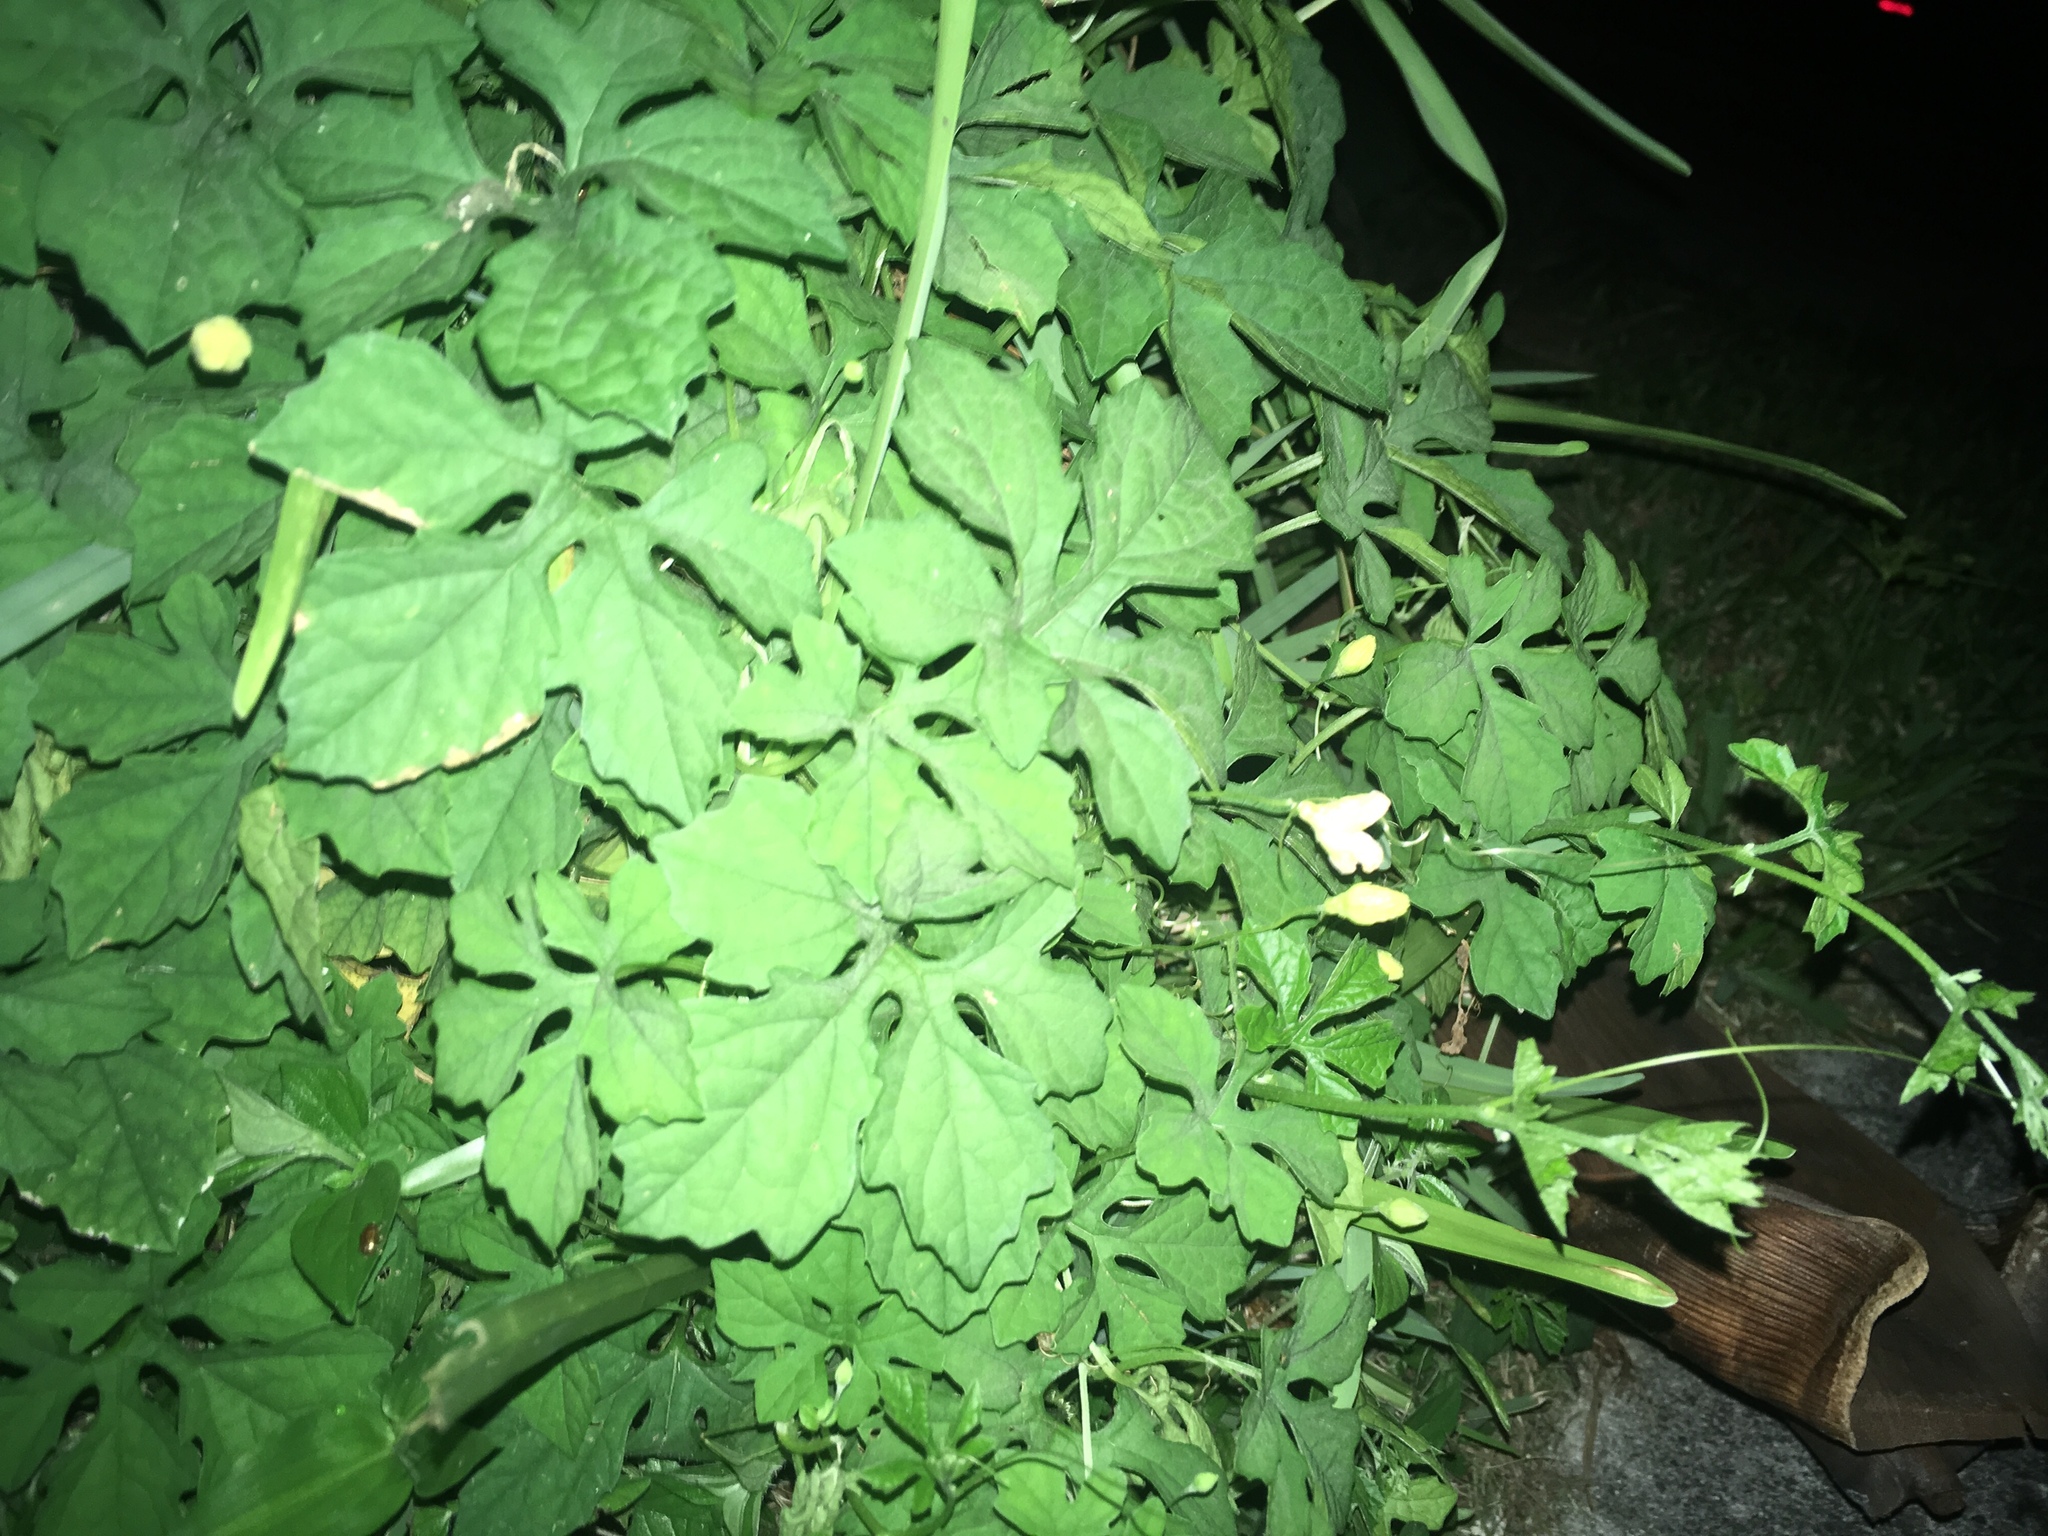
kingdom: Plantae
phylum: Tracheophyta
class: Magnoliopsida
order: Cucurbitales
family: Cucurbitaceae
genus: Momordica
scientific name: Momordica charantia
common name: Balsampear
